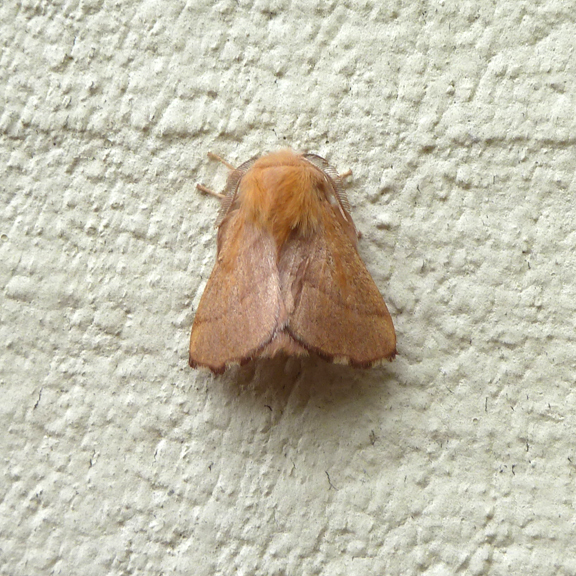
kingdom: Animalia
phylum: Arthropoda
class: Insecta
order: Lepidoptera
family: Lasiocampidae
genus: Malacosoma
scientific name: Malacosoma disstria
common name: Forest tent caterpillar
